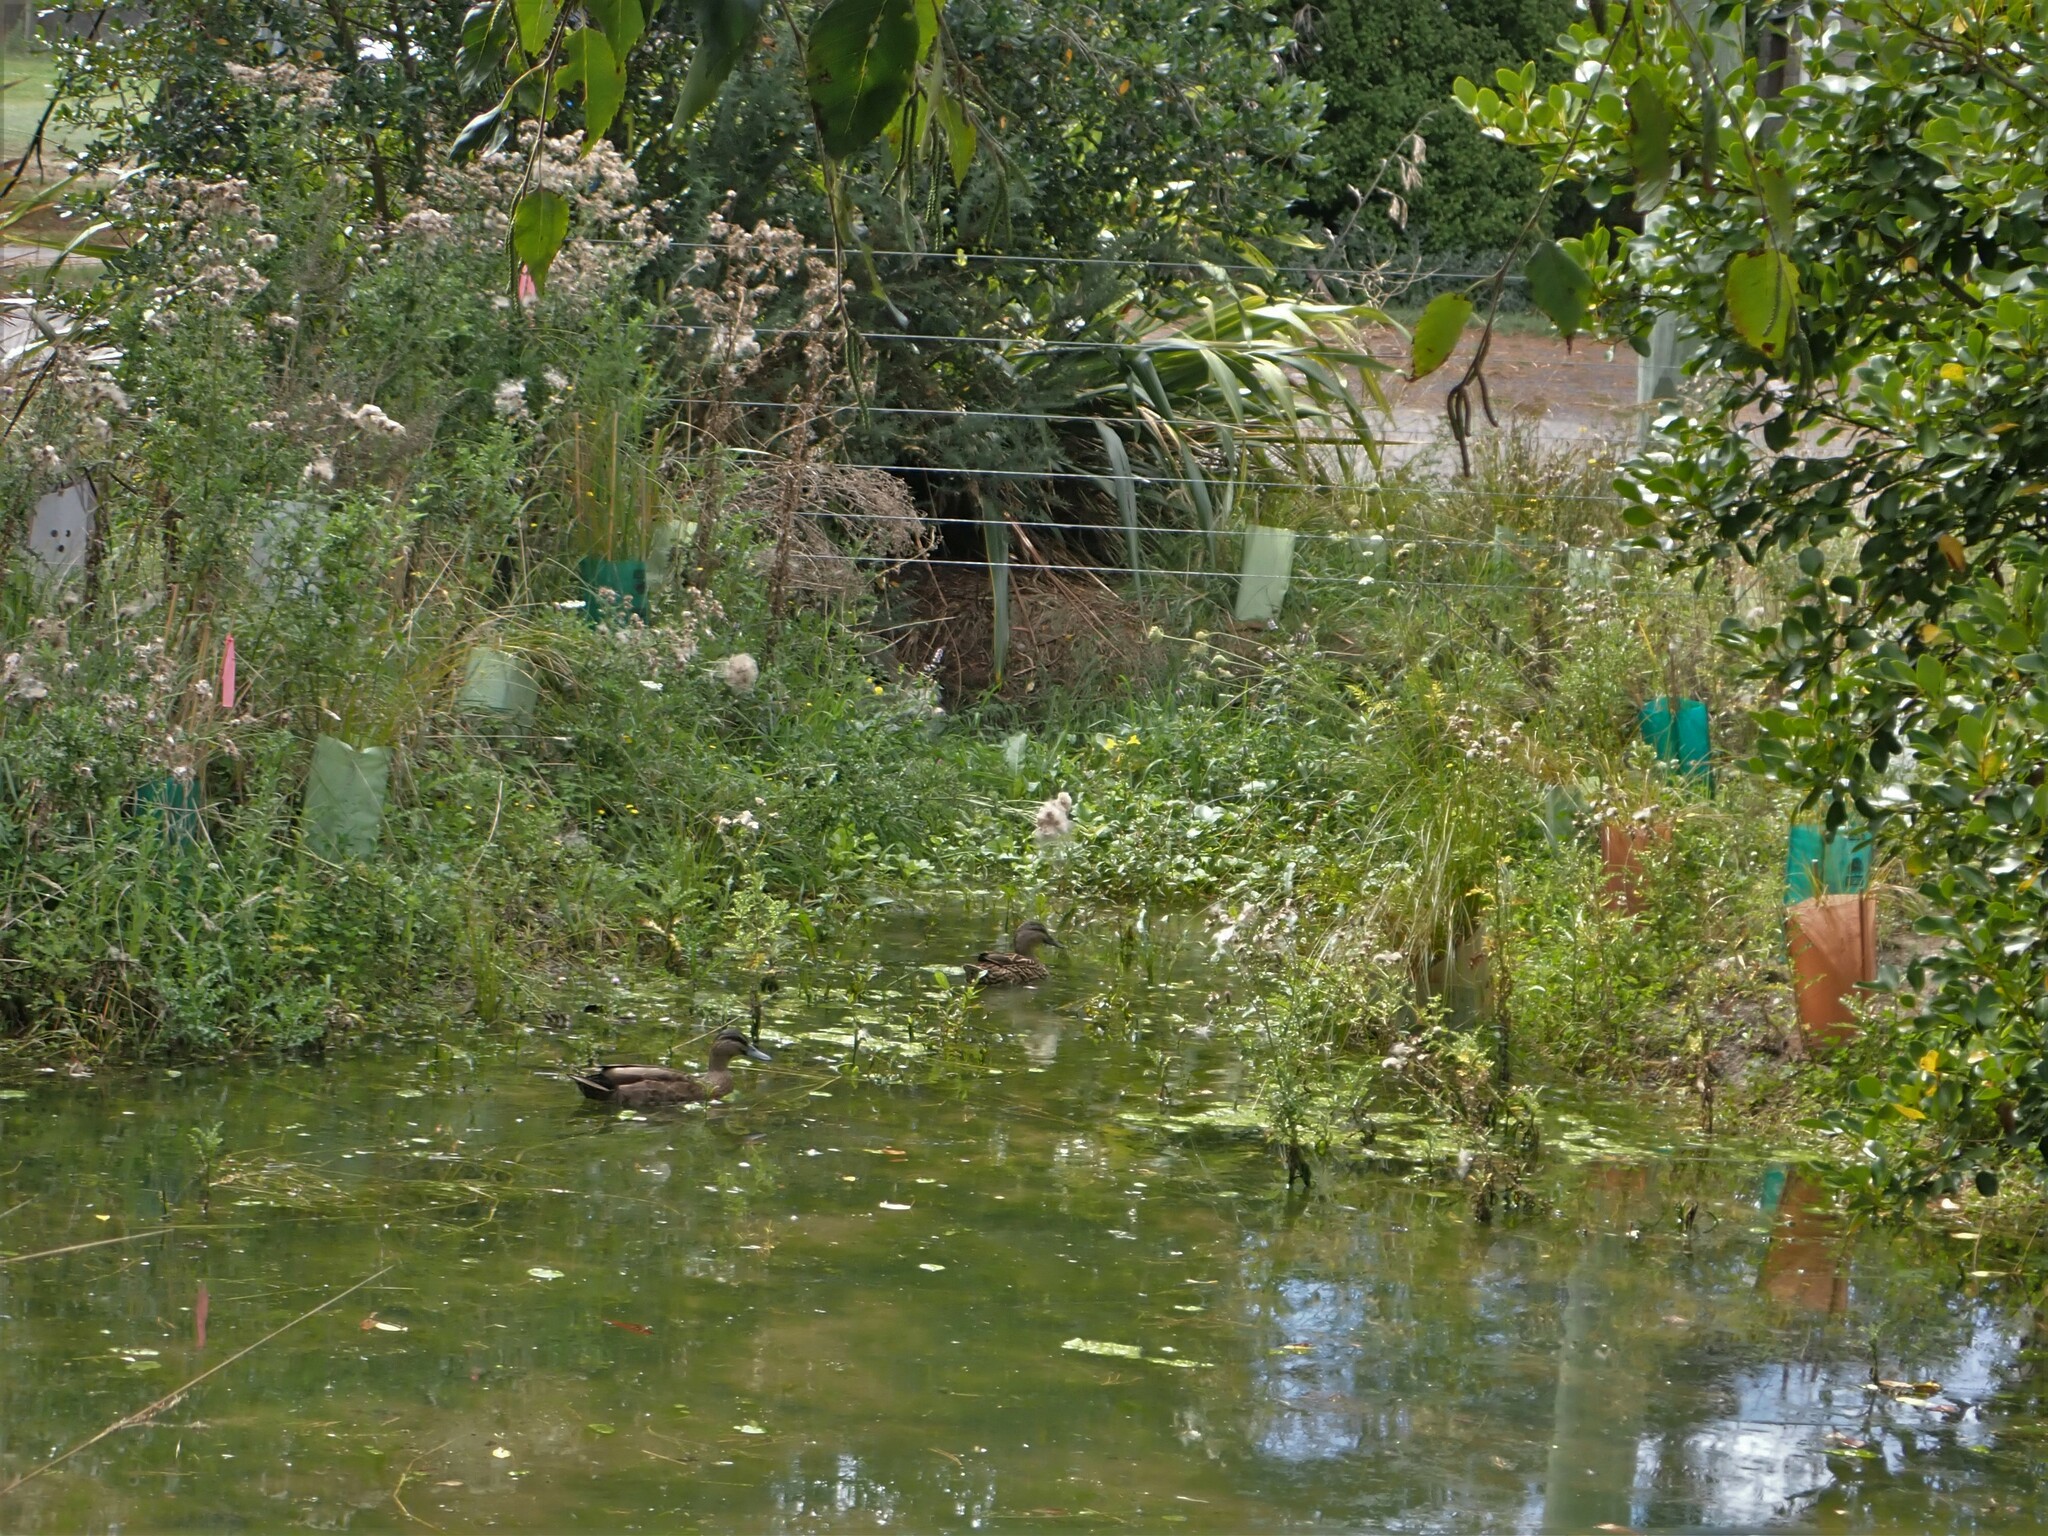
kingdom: Animalia
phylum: Chordata
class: Aves
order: Anseriformes
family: Anatidae
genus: Anas
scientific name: Anas
